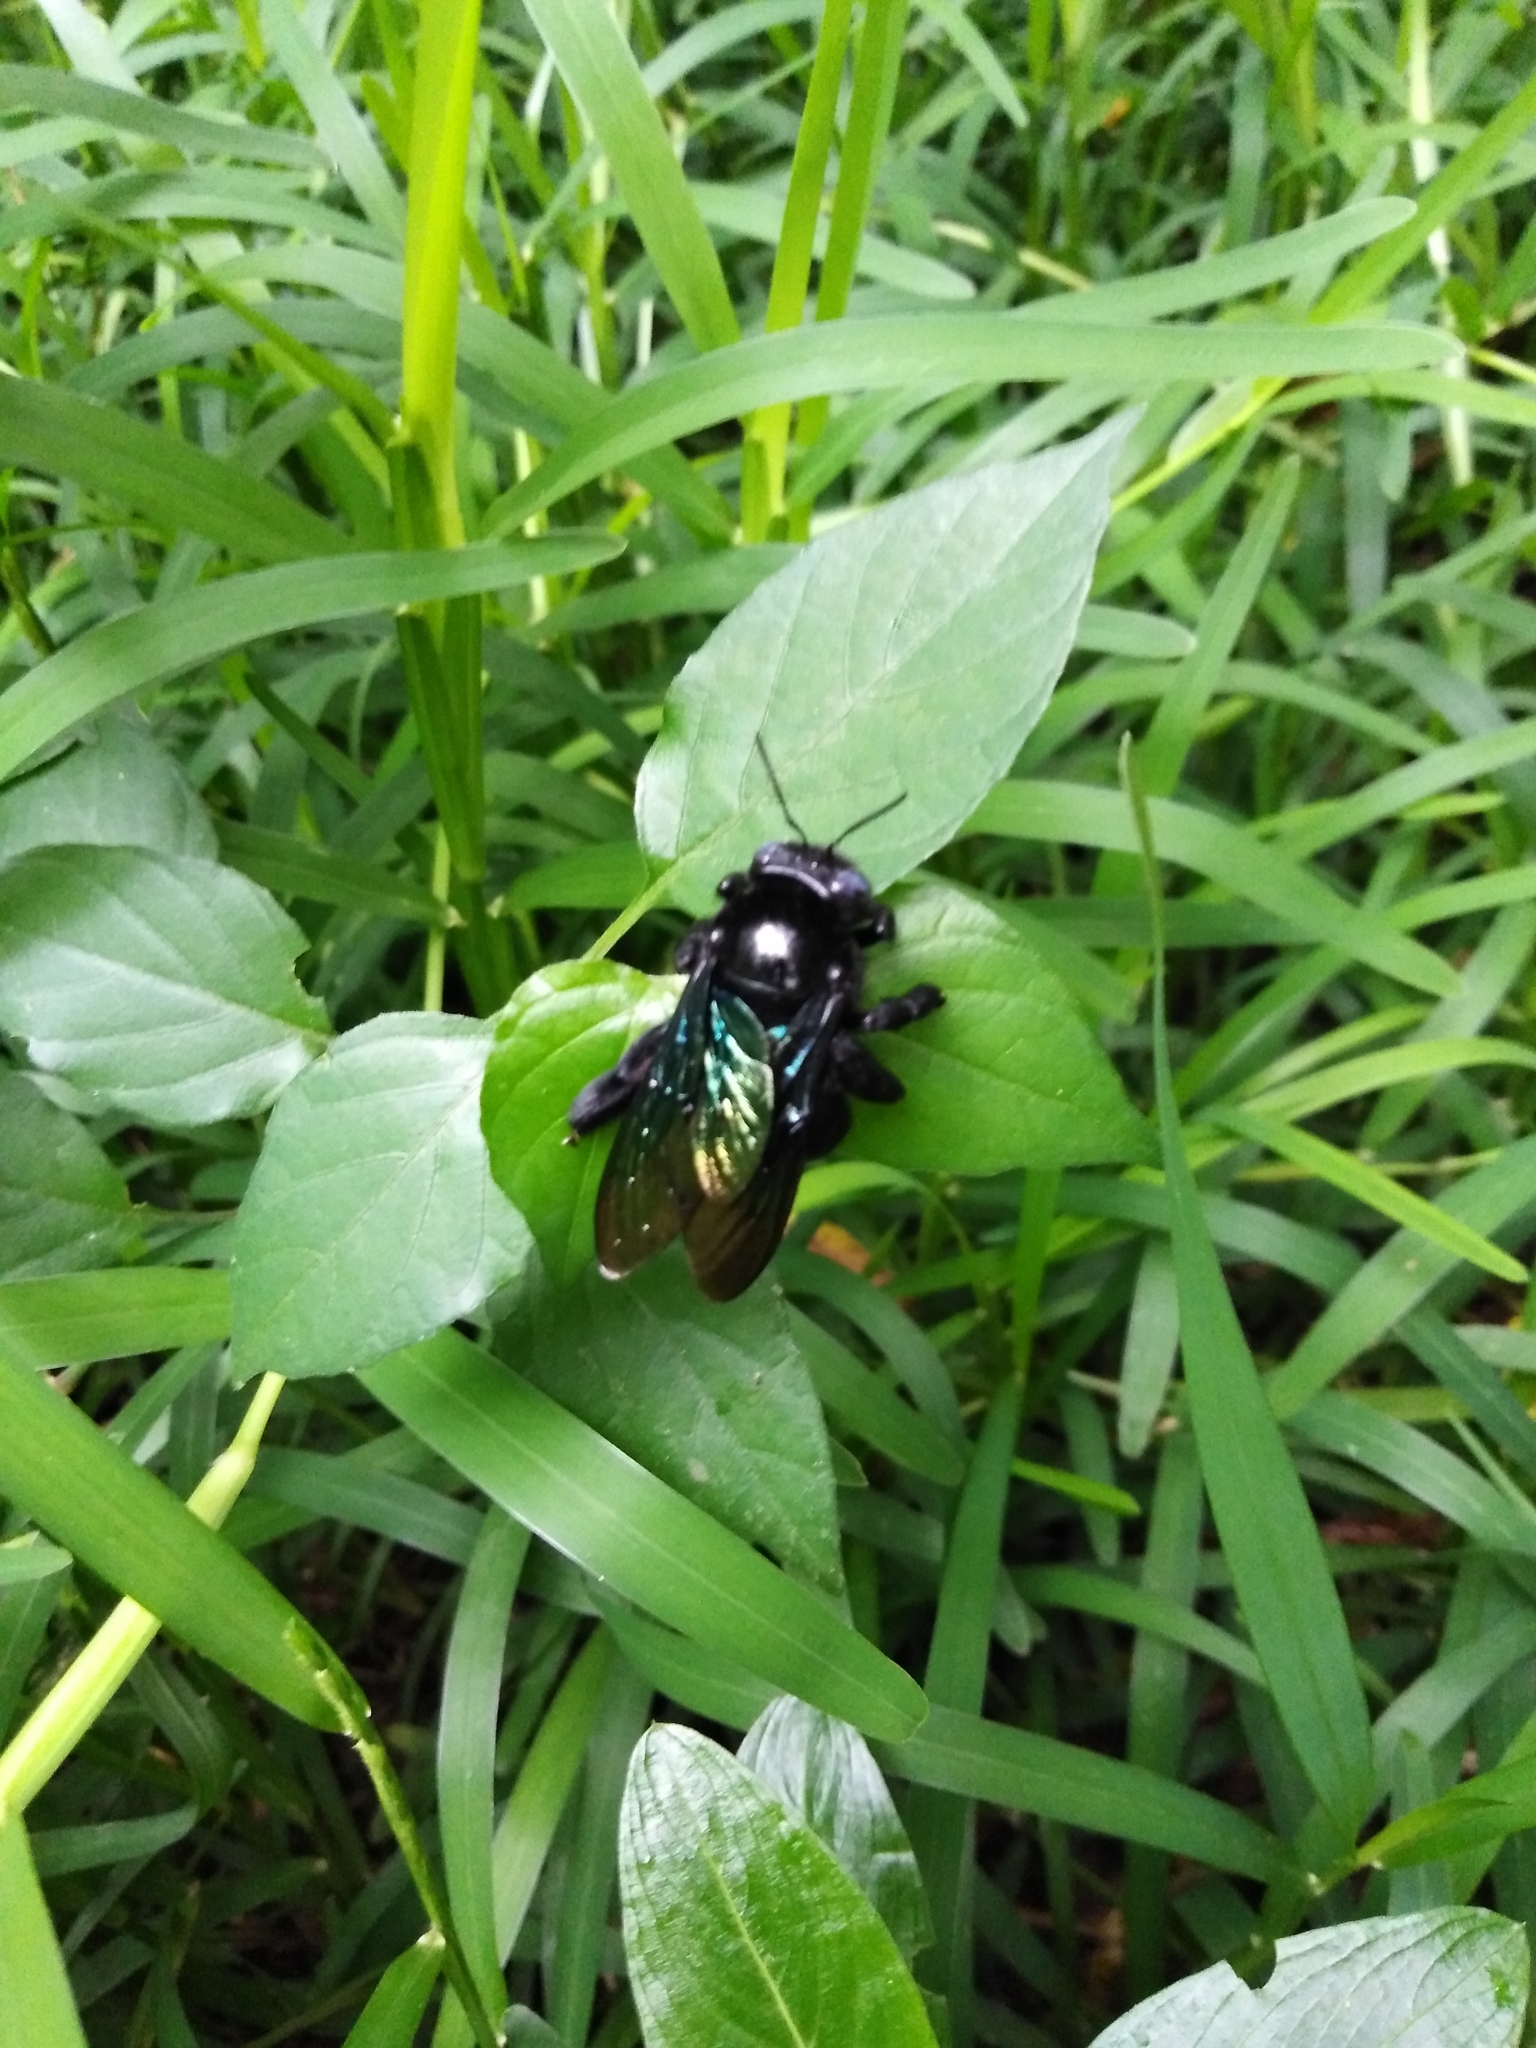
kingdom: Animalia
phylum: Arthropoda
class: Insecta
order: Hymenoptera
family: Apidae
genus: Xylocopa
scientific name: Xylocopa auripennis
